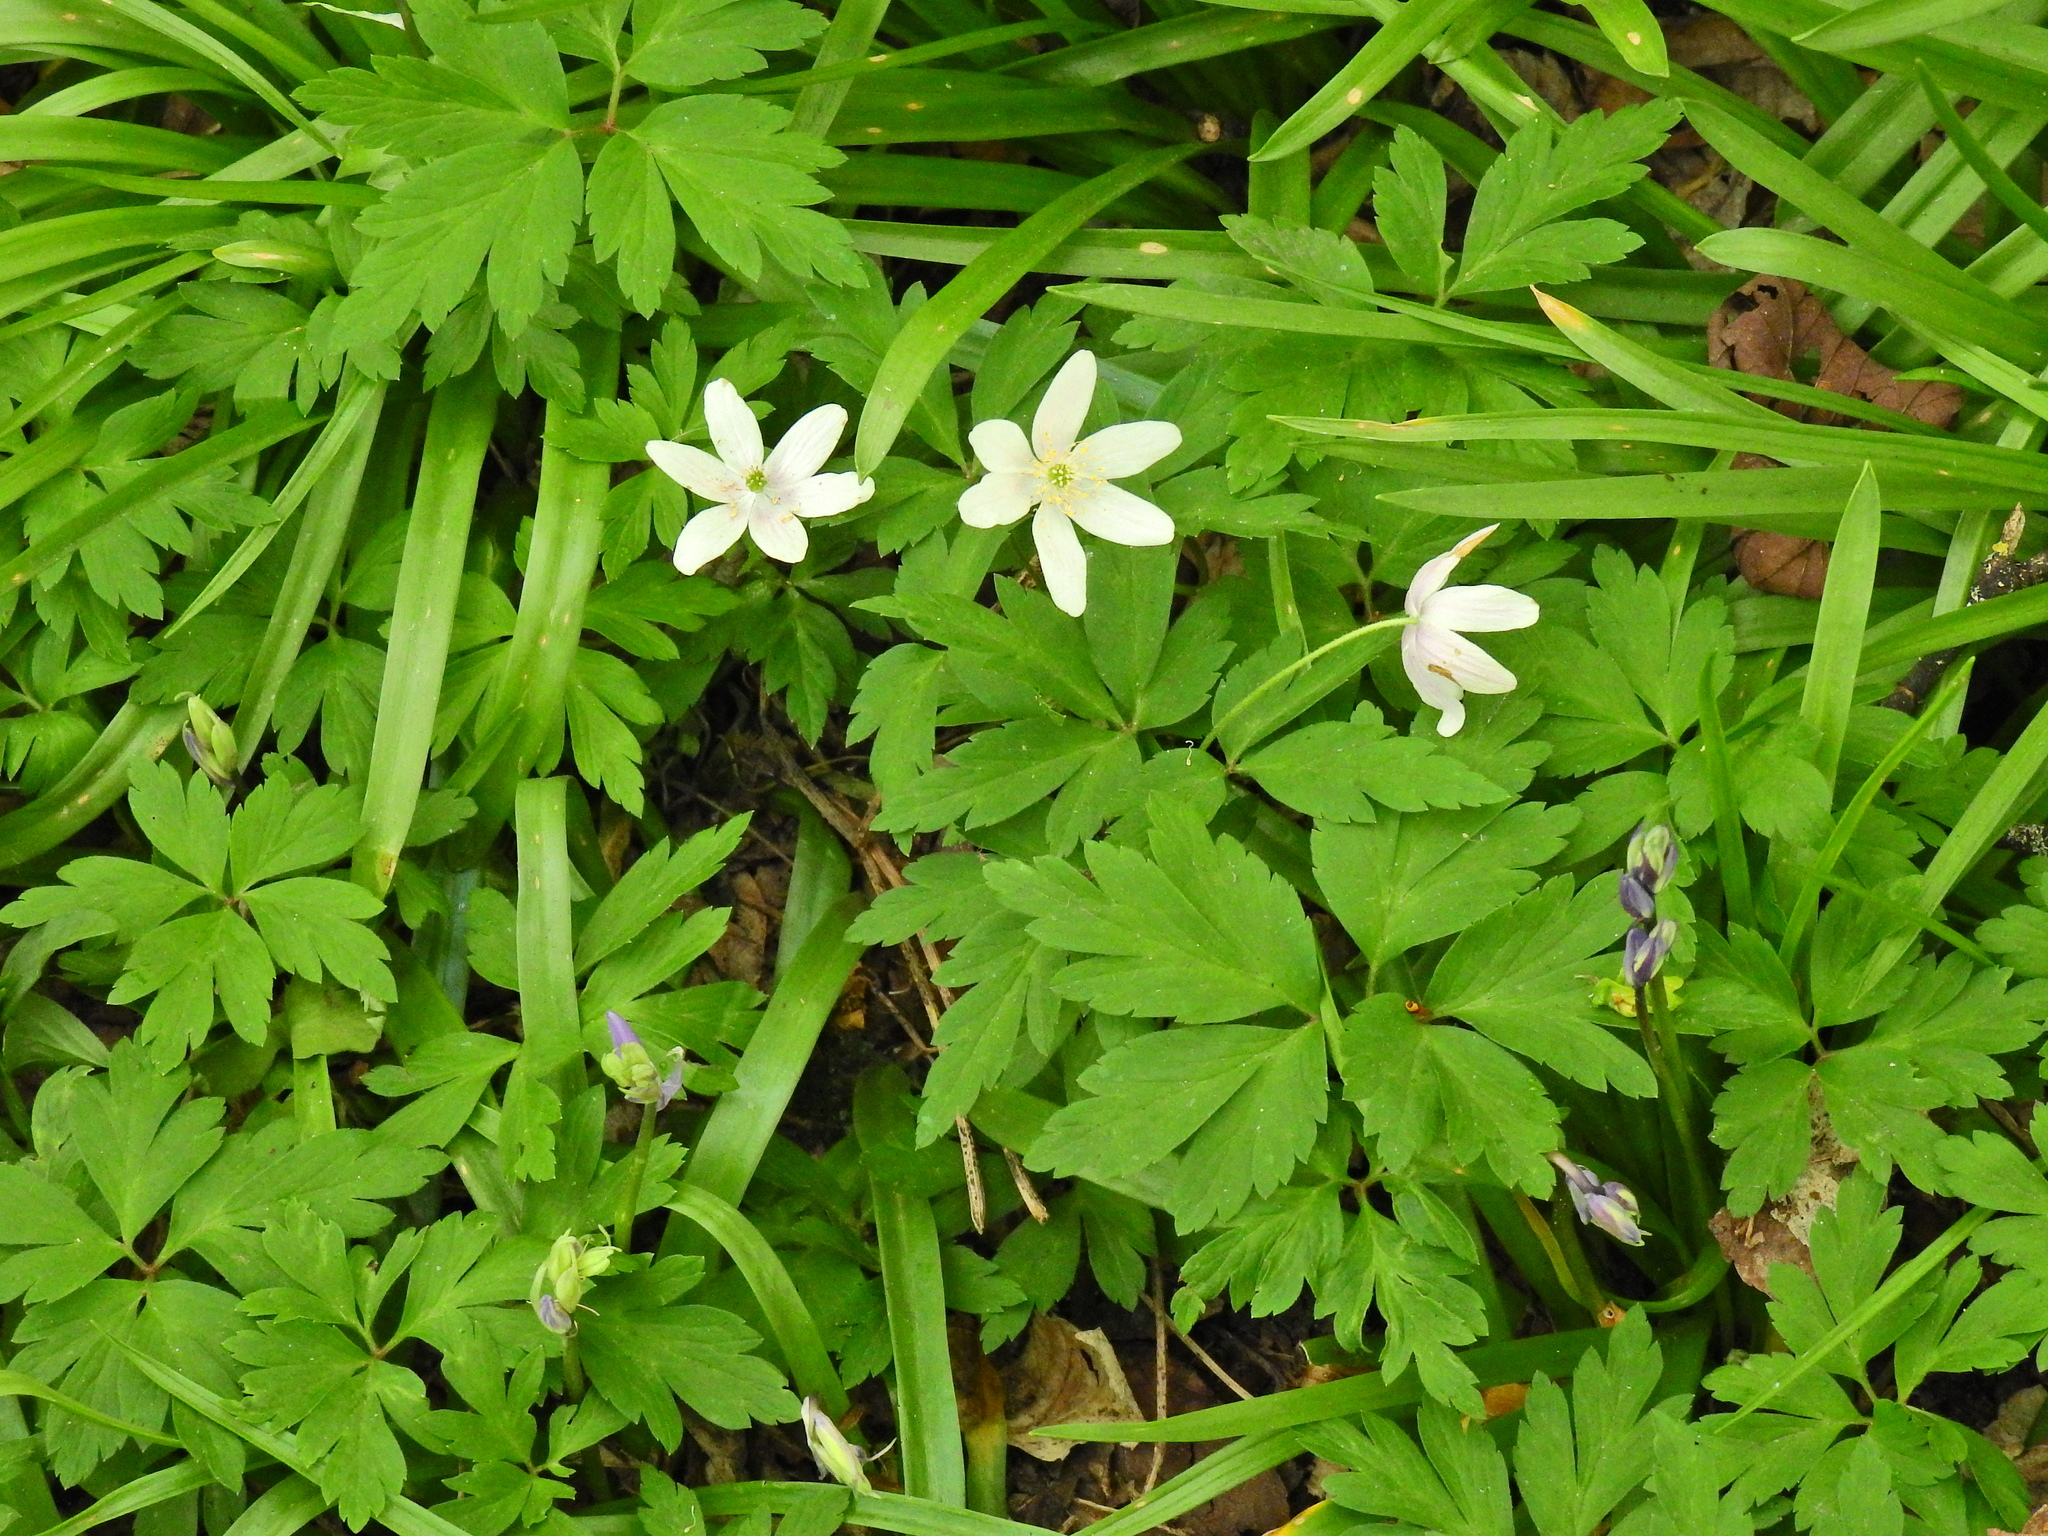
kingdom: Plantae
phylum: Tracheophyta
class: Magnoliopsida
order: Ranunculales
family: Ranunculaceae
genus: Anemone
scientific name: Anemone nemorosa
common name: Wood anemone
